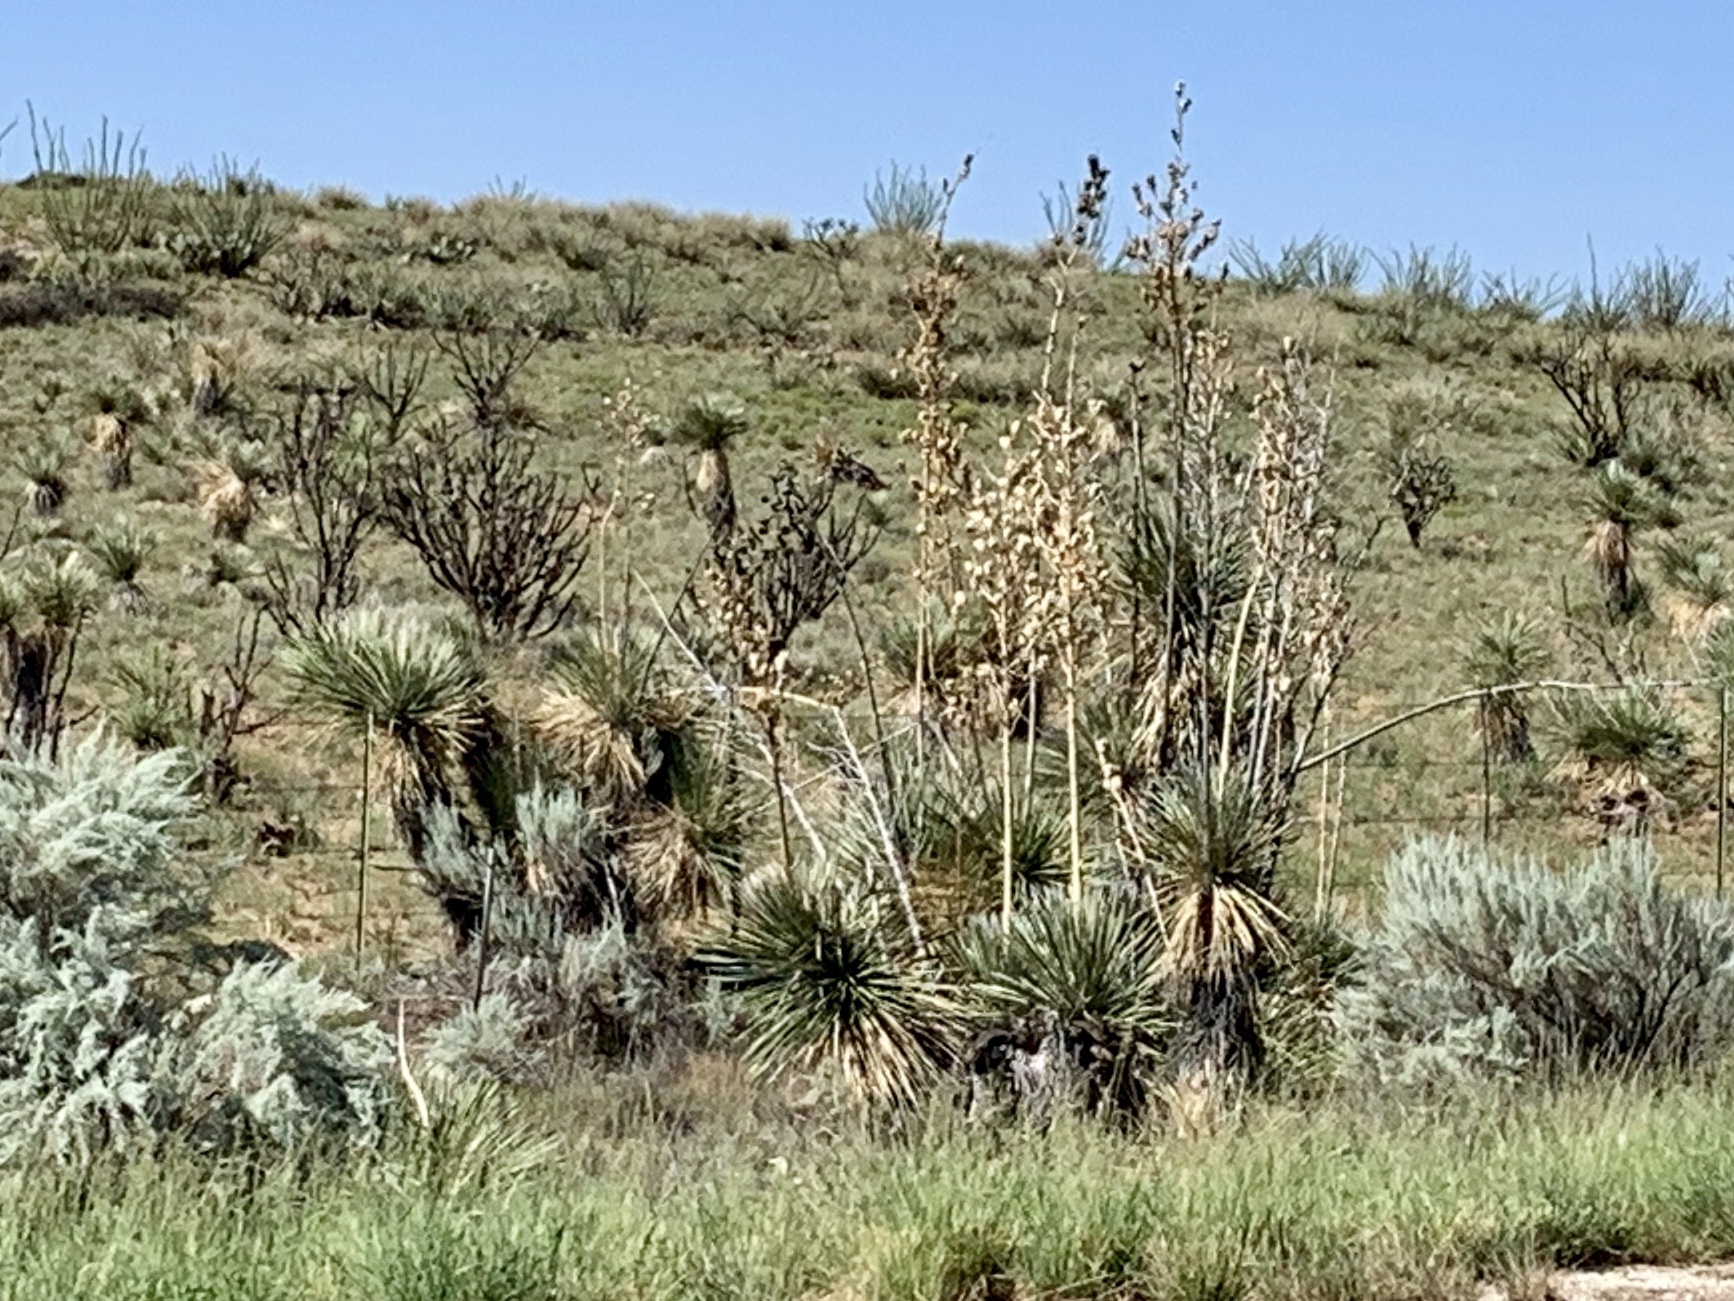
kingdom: Plantae
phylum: Tracheophyta
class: Liliopsida
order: Asparagales
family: Asparagaceae
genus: Yucca
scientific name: Yucca elata
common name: Palmella
